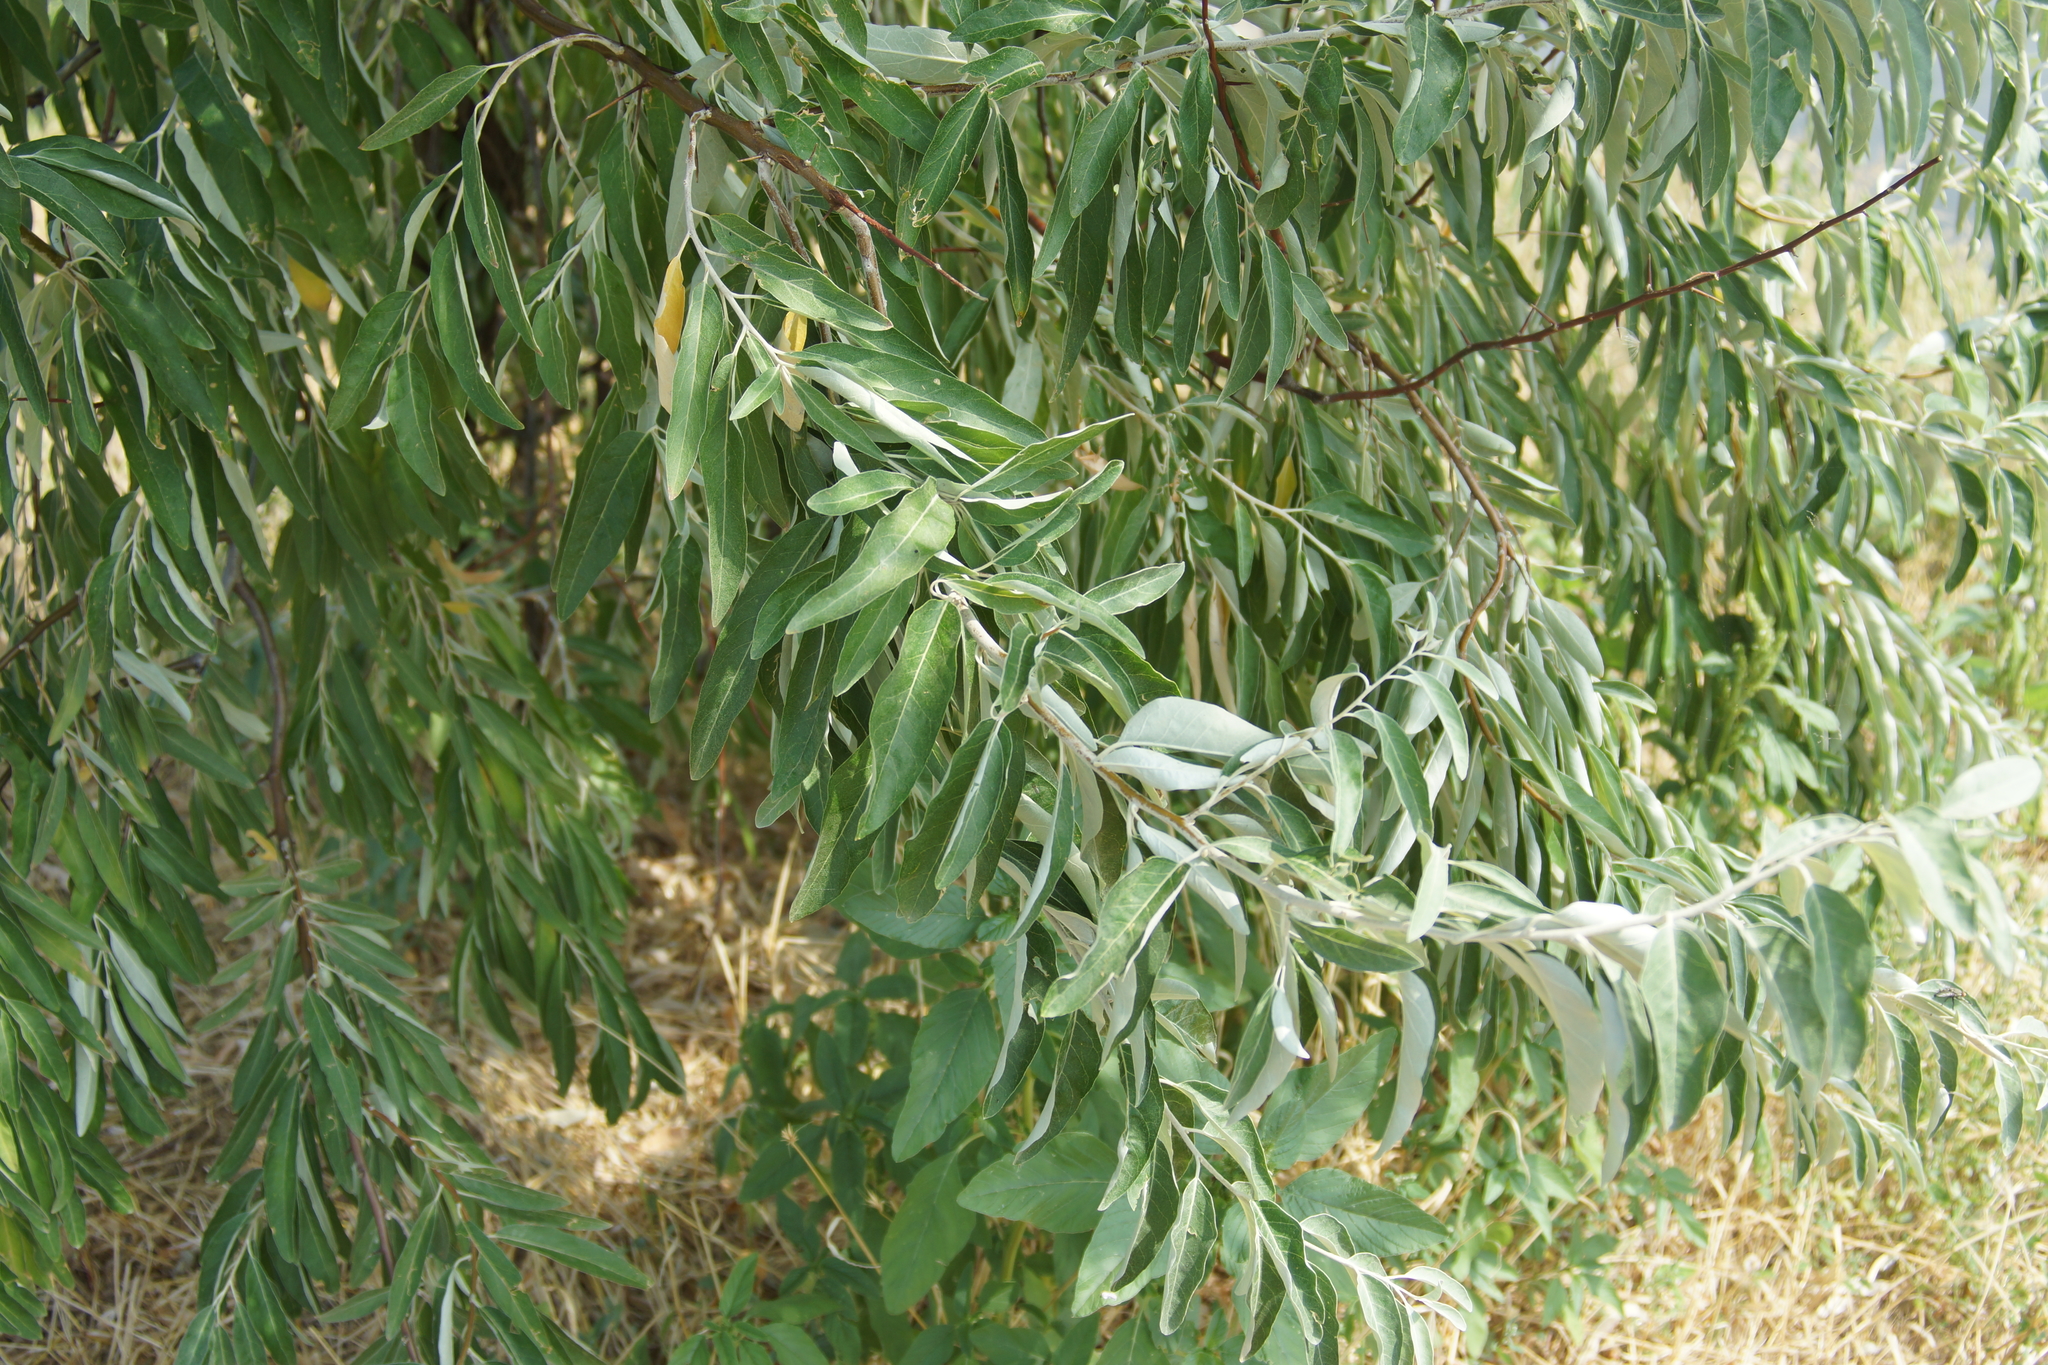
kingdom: Plantae
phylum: Tracheophyta
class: Magnoliopsida
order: Rosales
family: Elaeagnaceae
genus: Elaeagnus
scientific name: Elaeagnus angustifolia
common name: Russian olive
